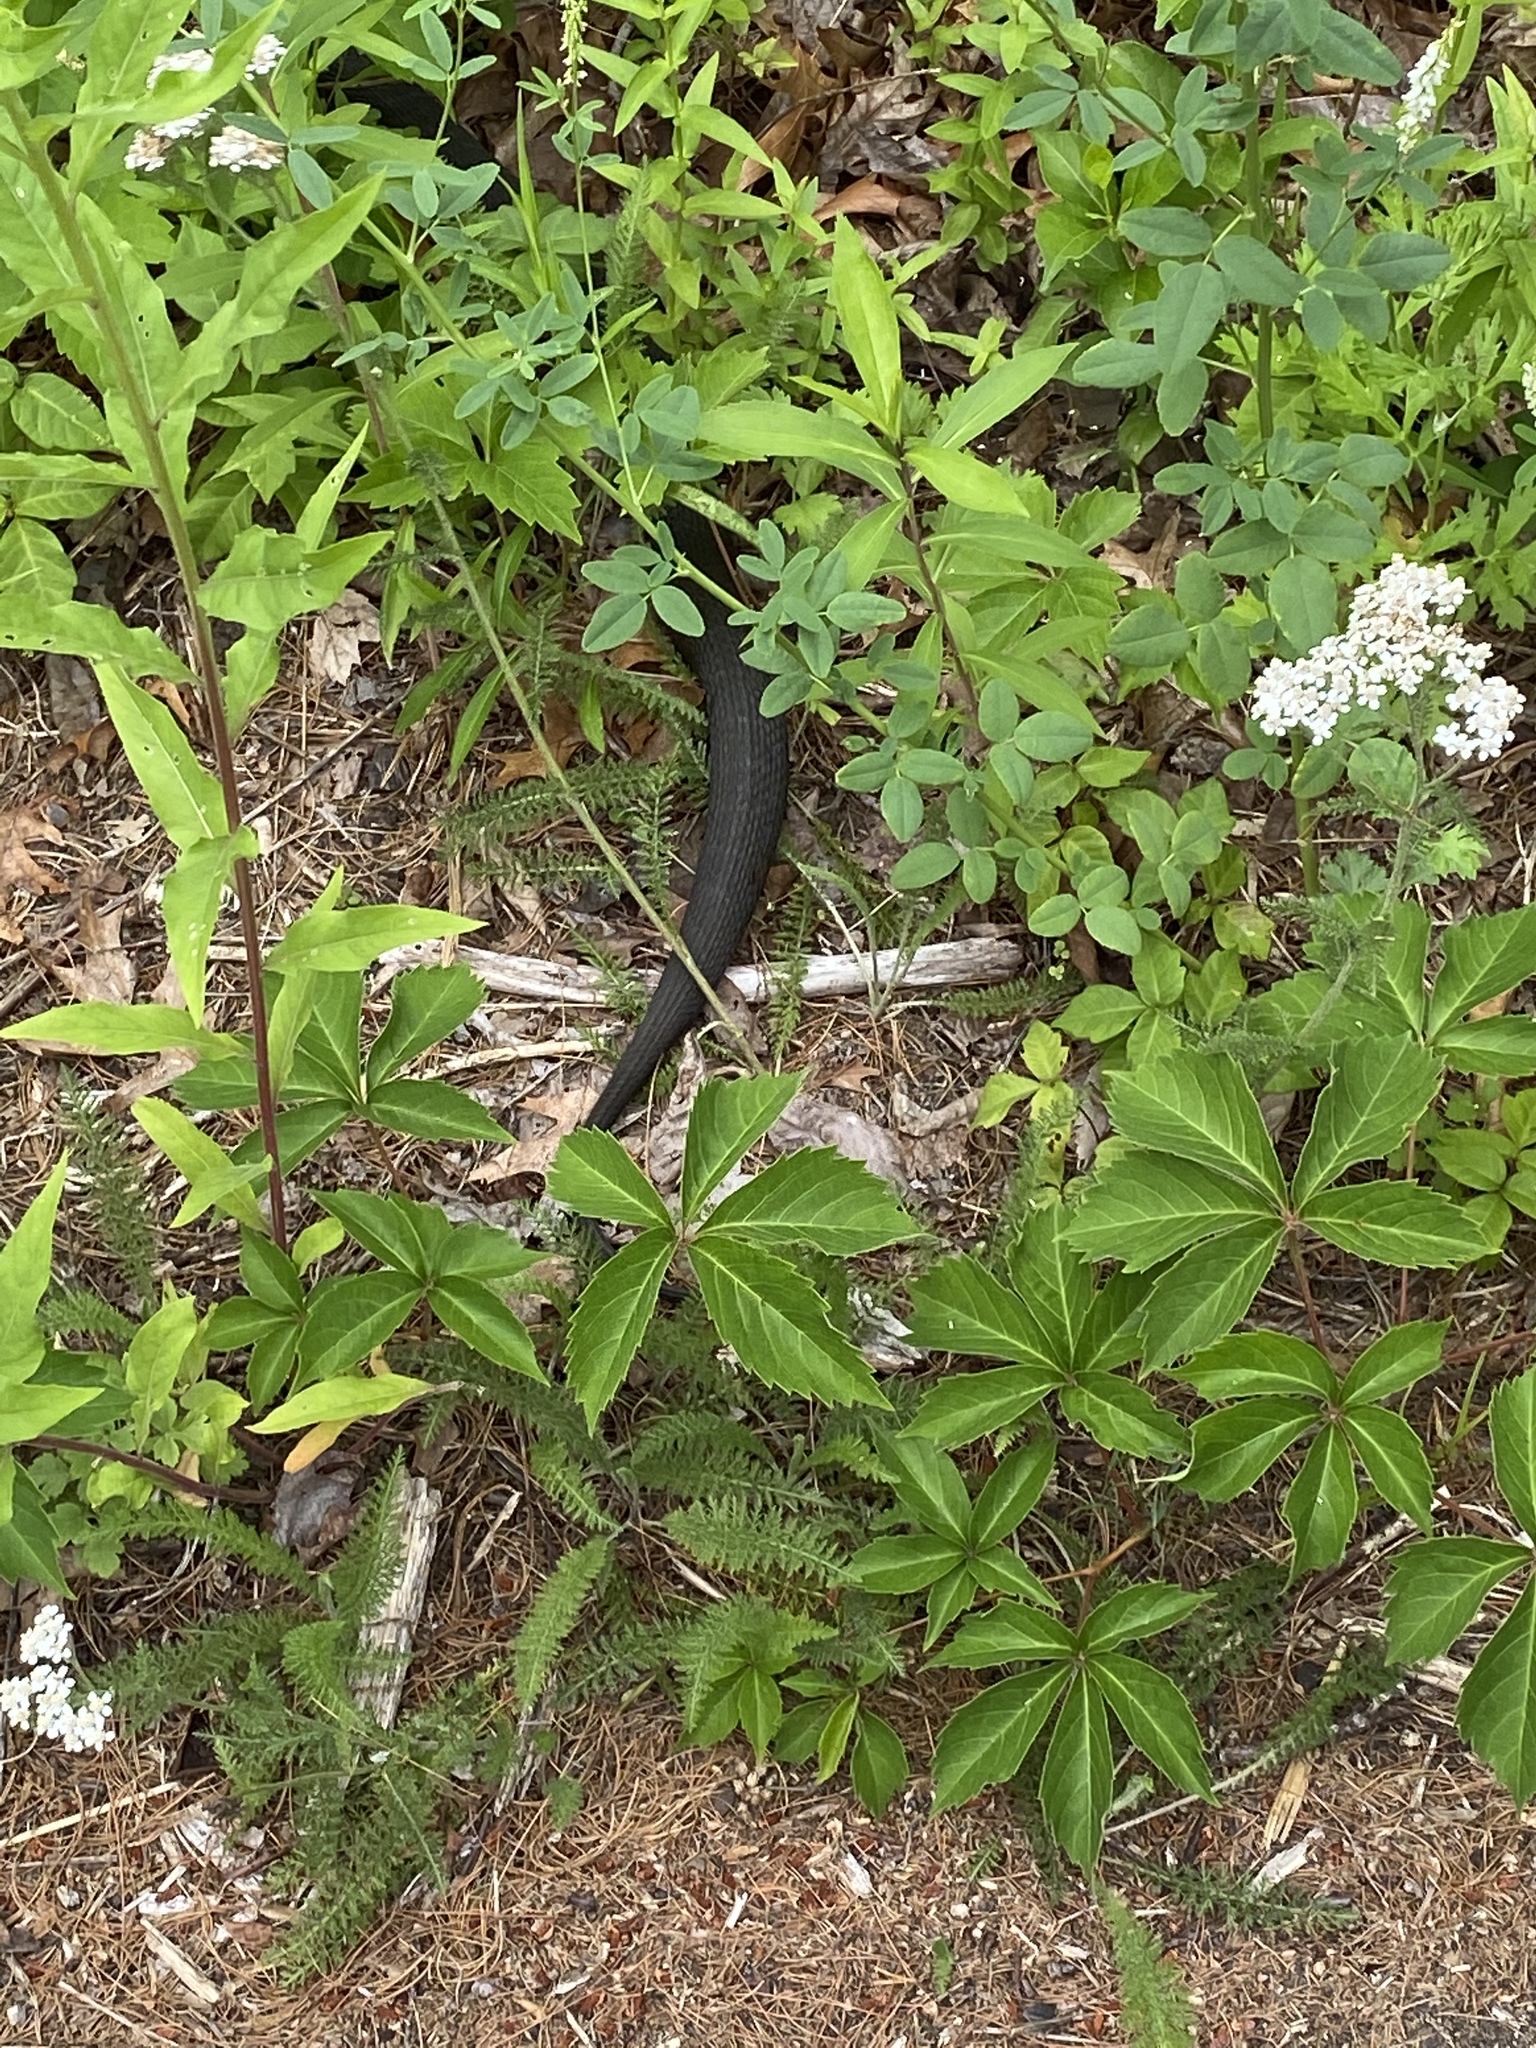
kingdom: Animalia
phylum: Chordata
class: Squamata
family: Colubridae
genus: Nerodia
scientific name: Nerodia sipedon
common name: Northern water snake
